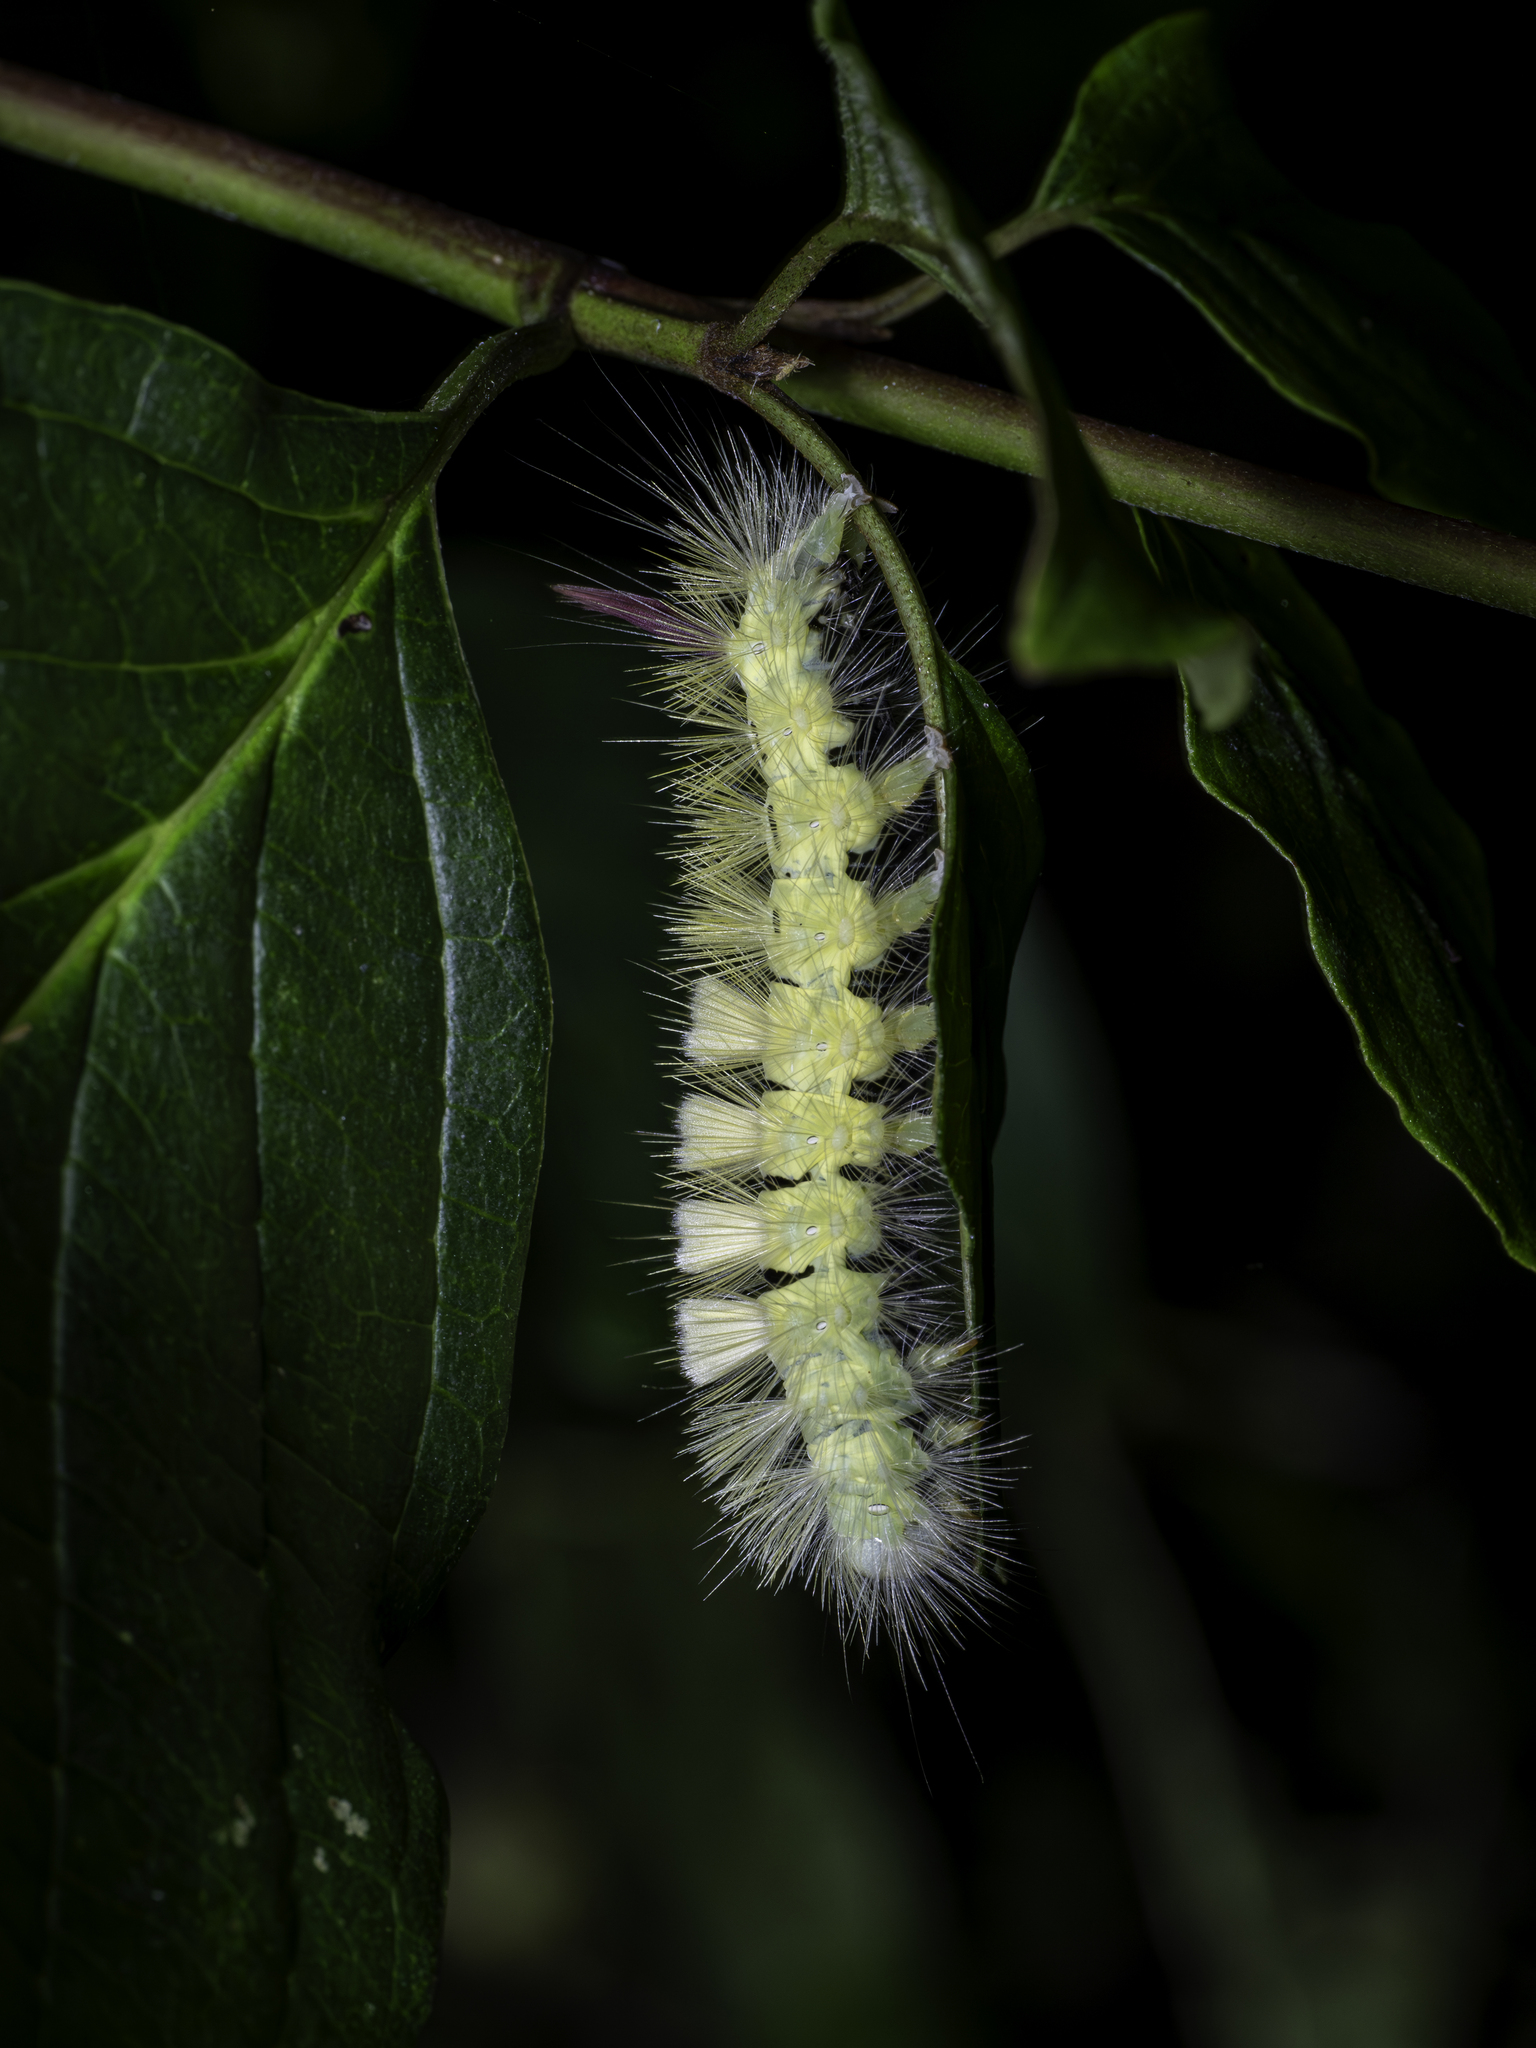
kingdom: Animalia
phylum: Arthropoda
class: Insecta
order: Lepidoptera
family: Erebidae
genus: Calliteara
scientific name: Calliteara pudibunda
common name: Pale tussock
